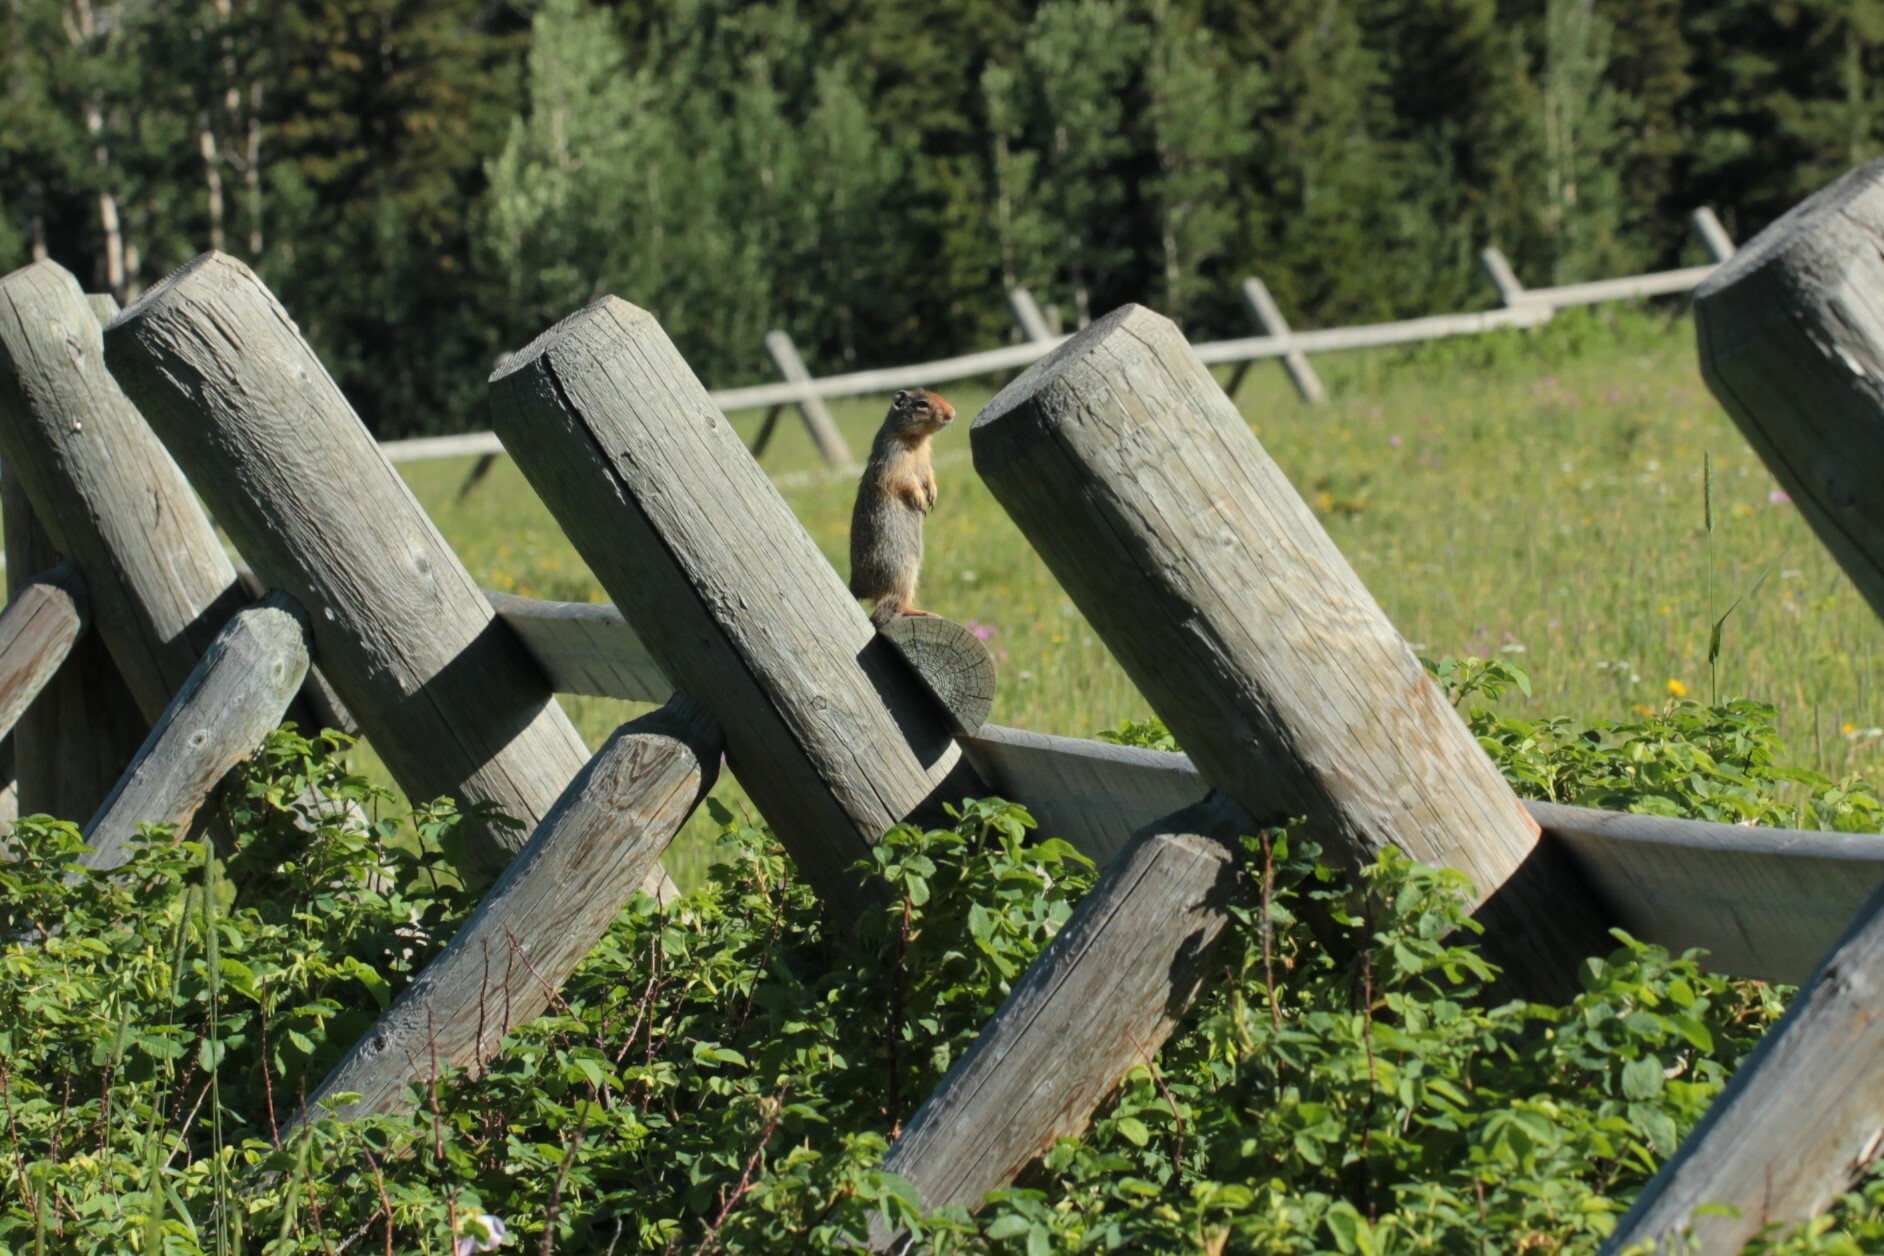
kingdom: Animalia
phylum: Chordata
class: Mammalia
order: Rodentia
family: Sciuridae
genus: Urocitellus
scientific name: Urocitellus columbianus
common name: Columbian ground squirrel
